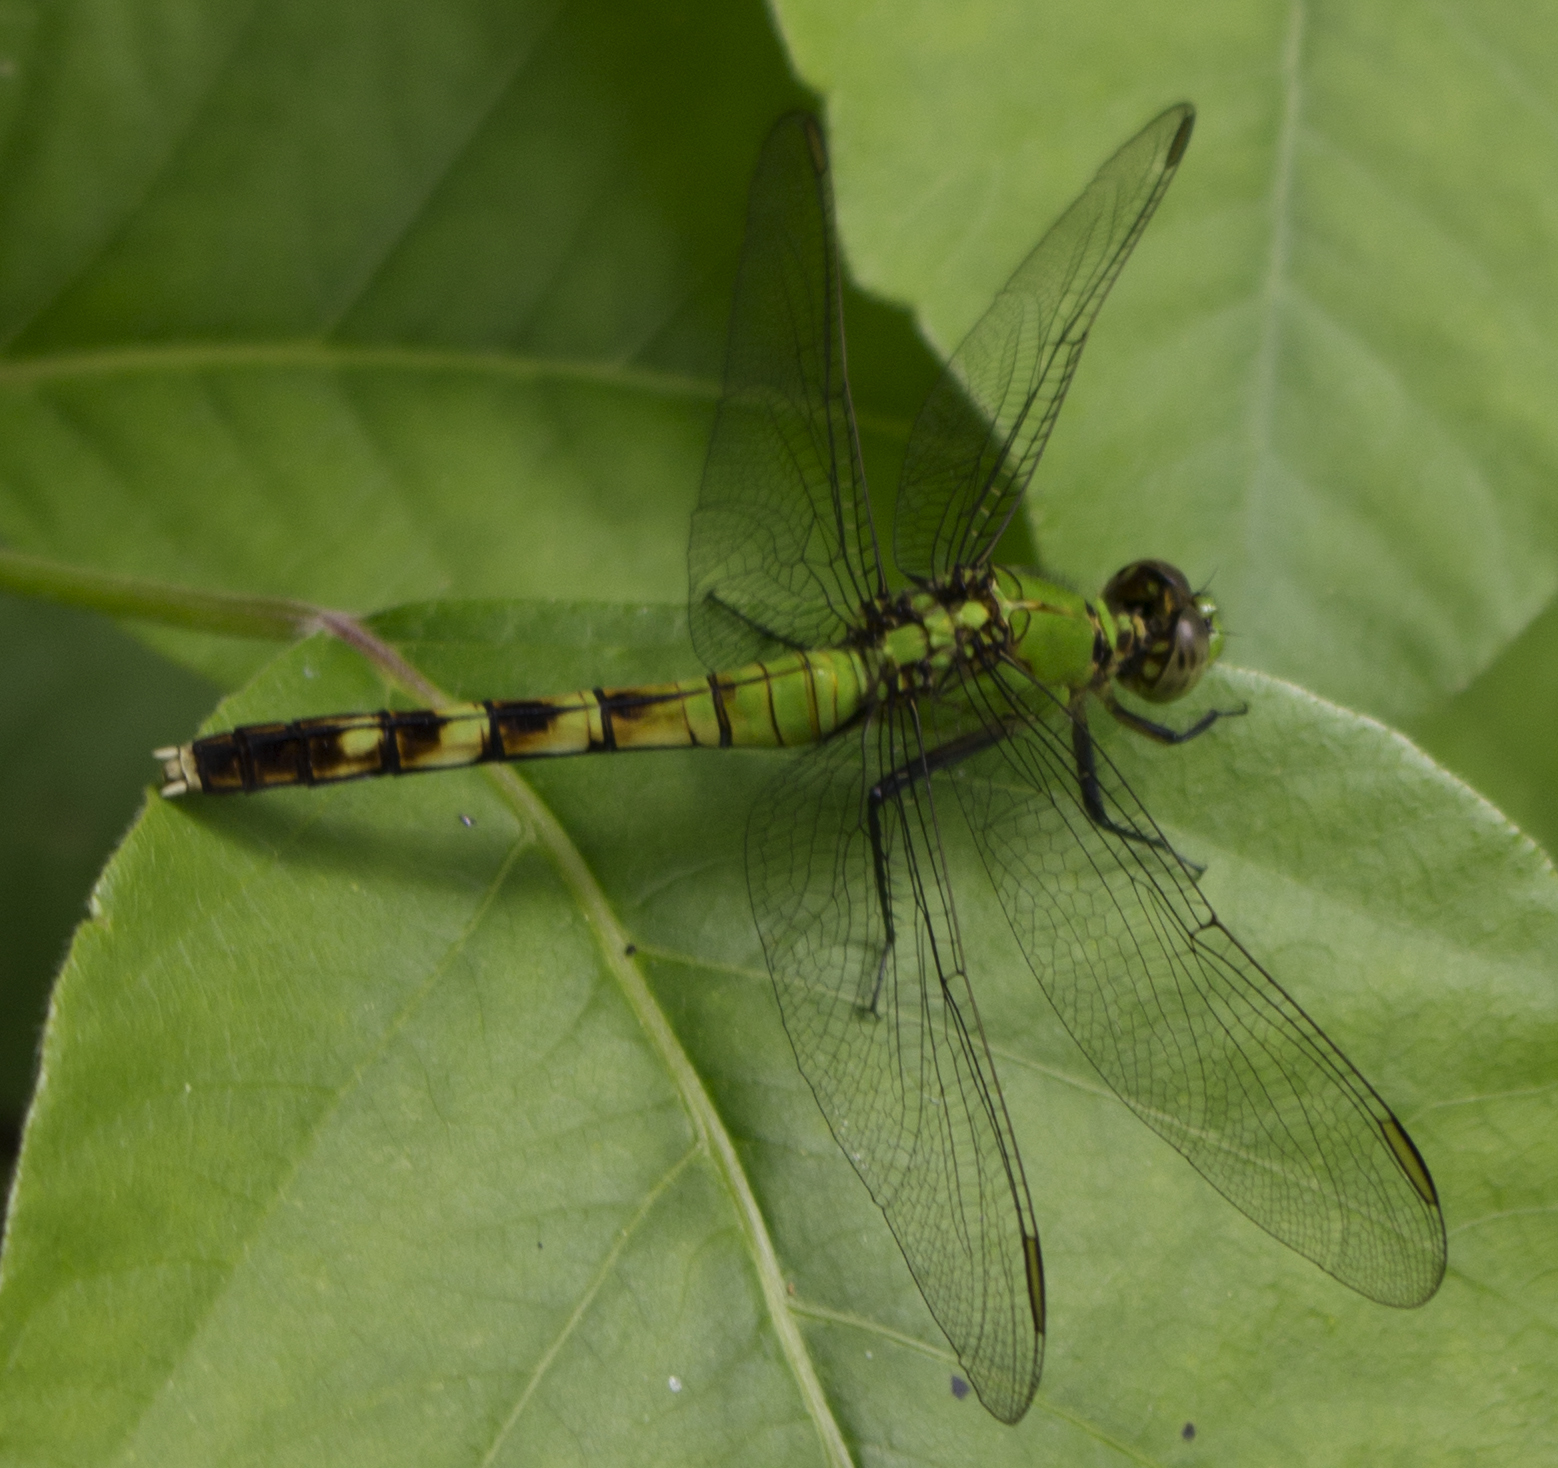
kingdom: Animalia
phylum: Arthropoda
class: Insecta
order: Odonata
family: Libellulidae
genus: Erythemis
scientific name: Erythemis simplicicollis
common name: Eastern pondhawk
